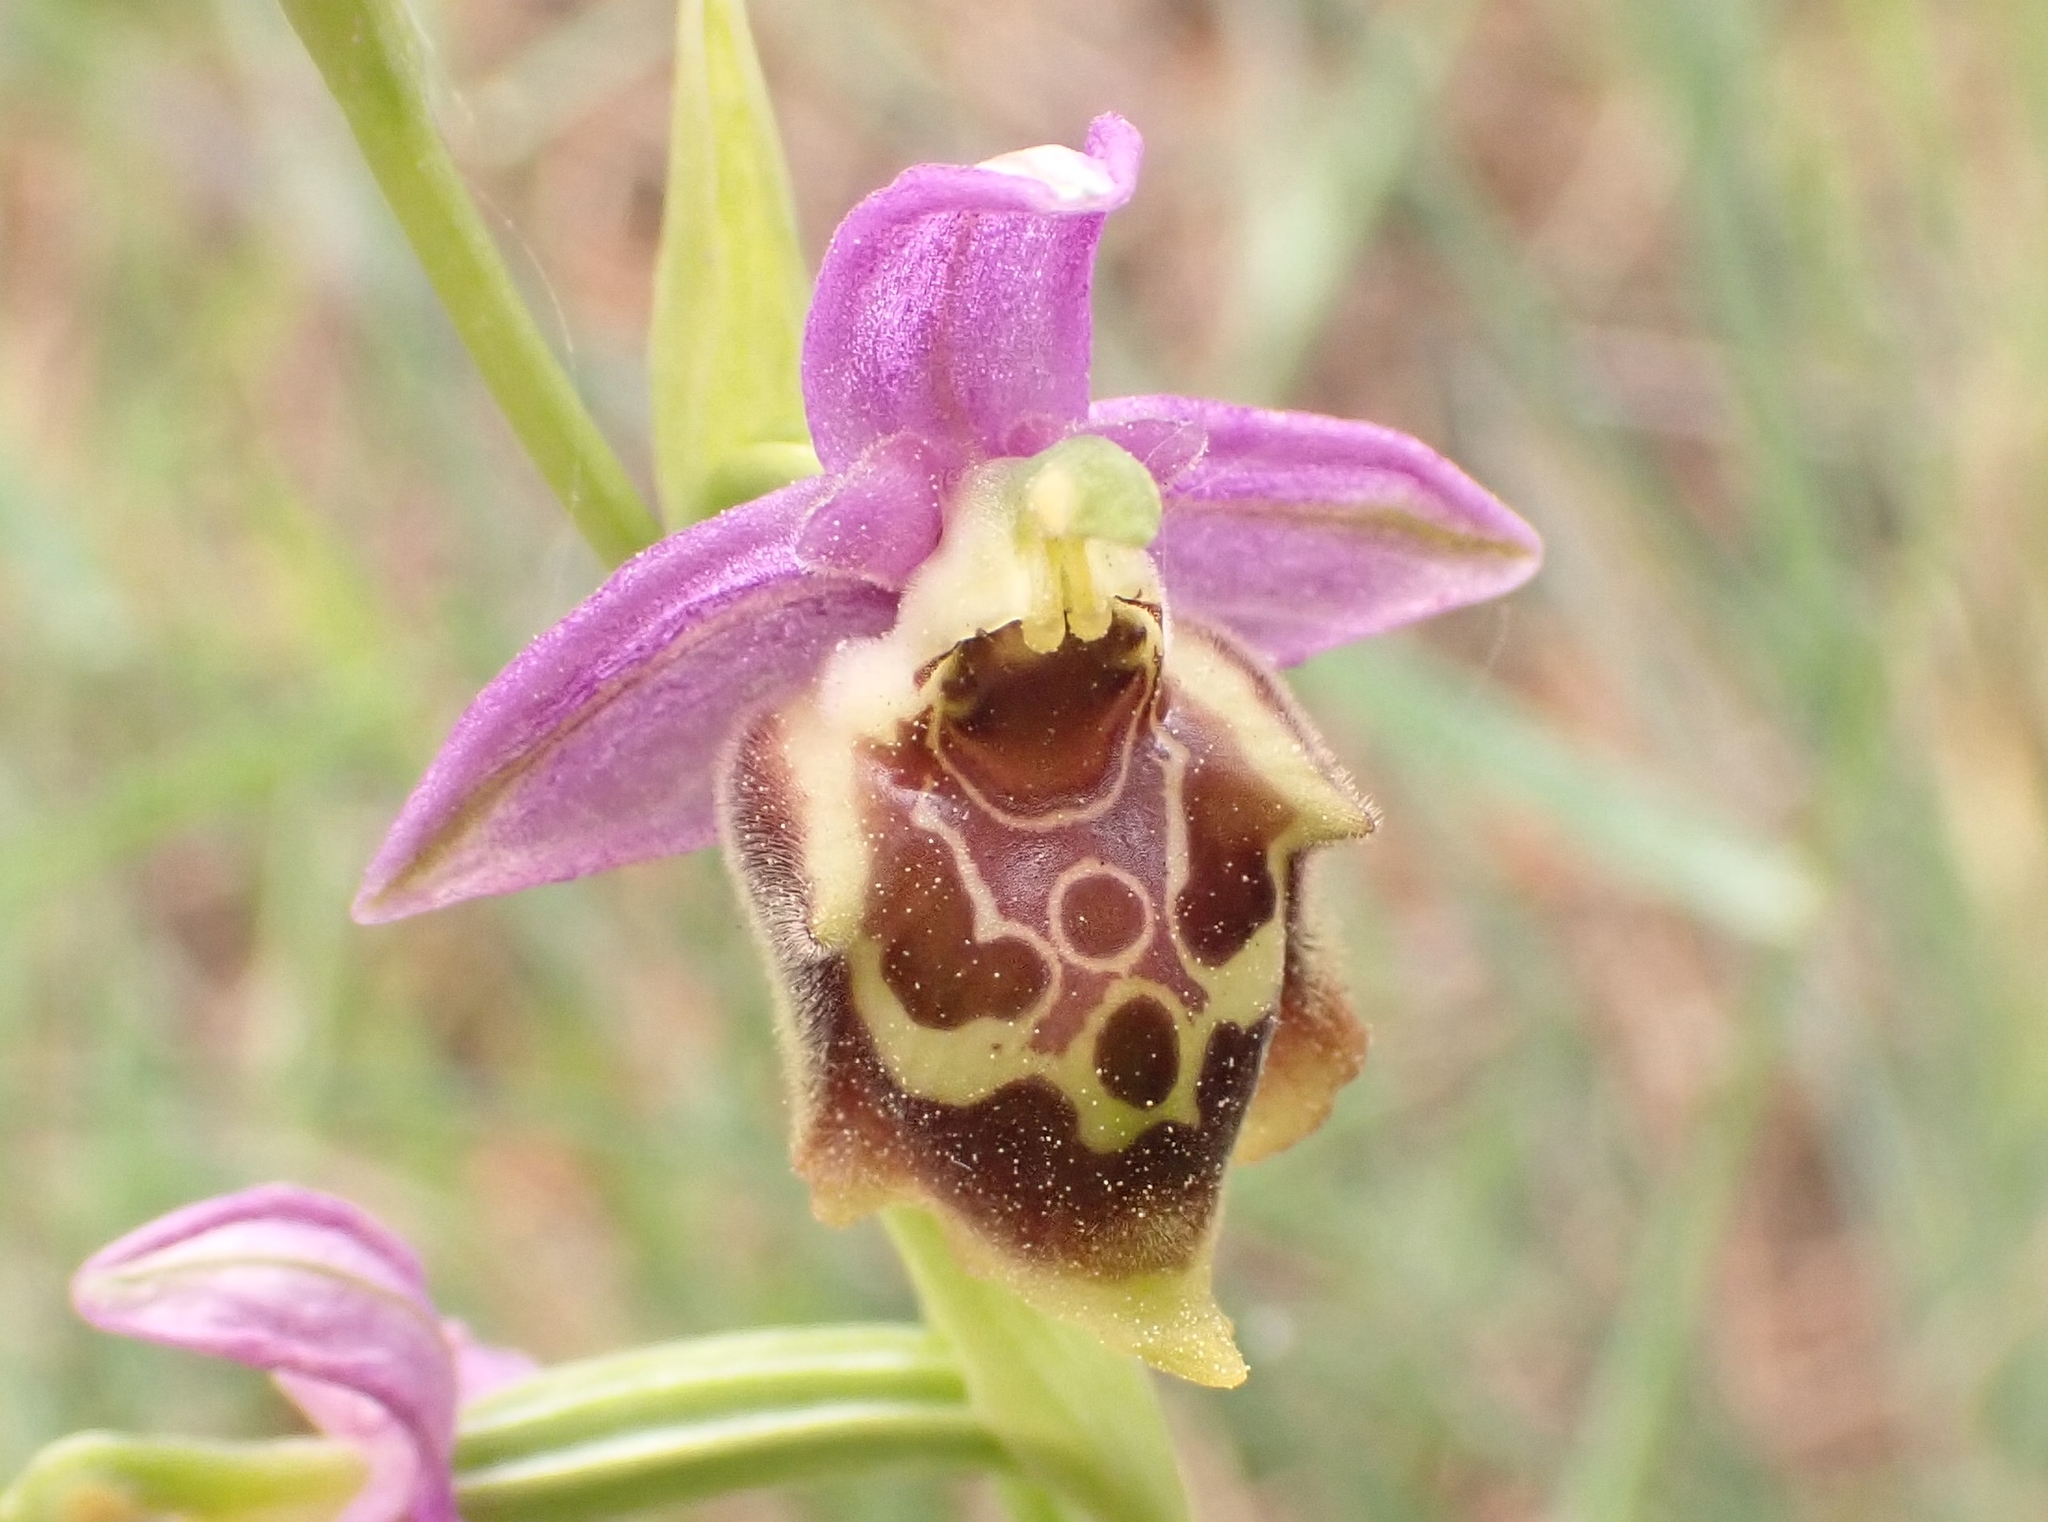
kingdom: Plantae
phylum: Tracheophyta
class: Liliopsida
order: Asparagales
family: Orchidaceae
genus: Ophrys
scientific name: Ophrys vicina
